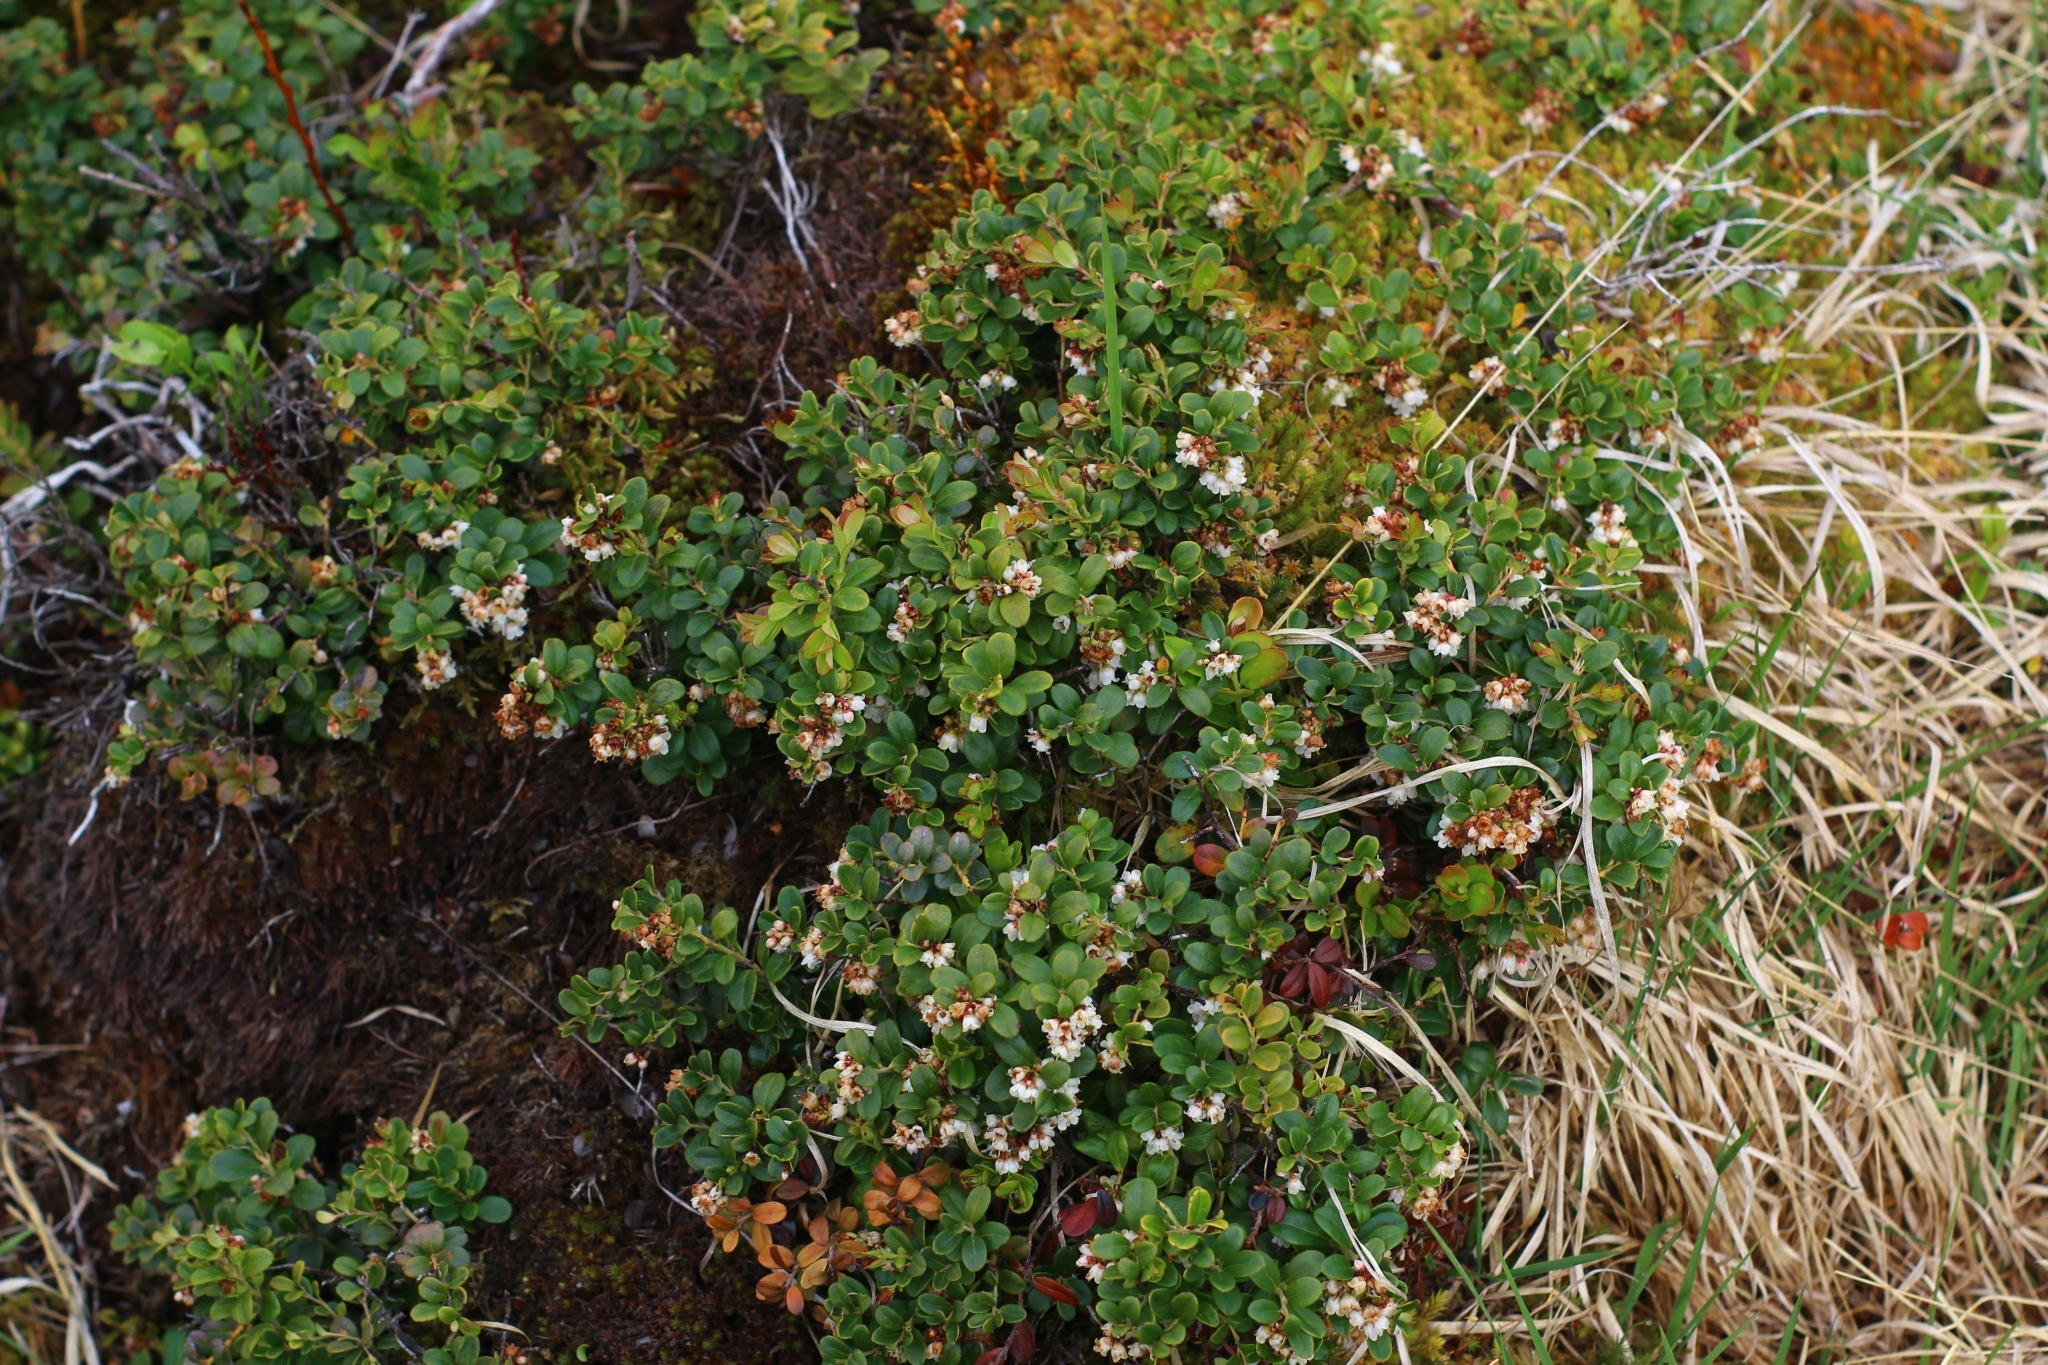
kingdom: Plantae
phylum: Tracheophyta
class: Magnoliopsida
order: Ericales
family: Ericaceae
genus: Vaccinium
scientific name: Vaccinium vitis-idaea
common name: Cowberry
